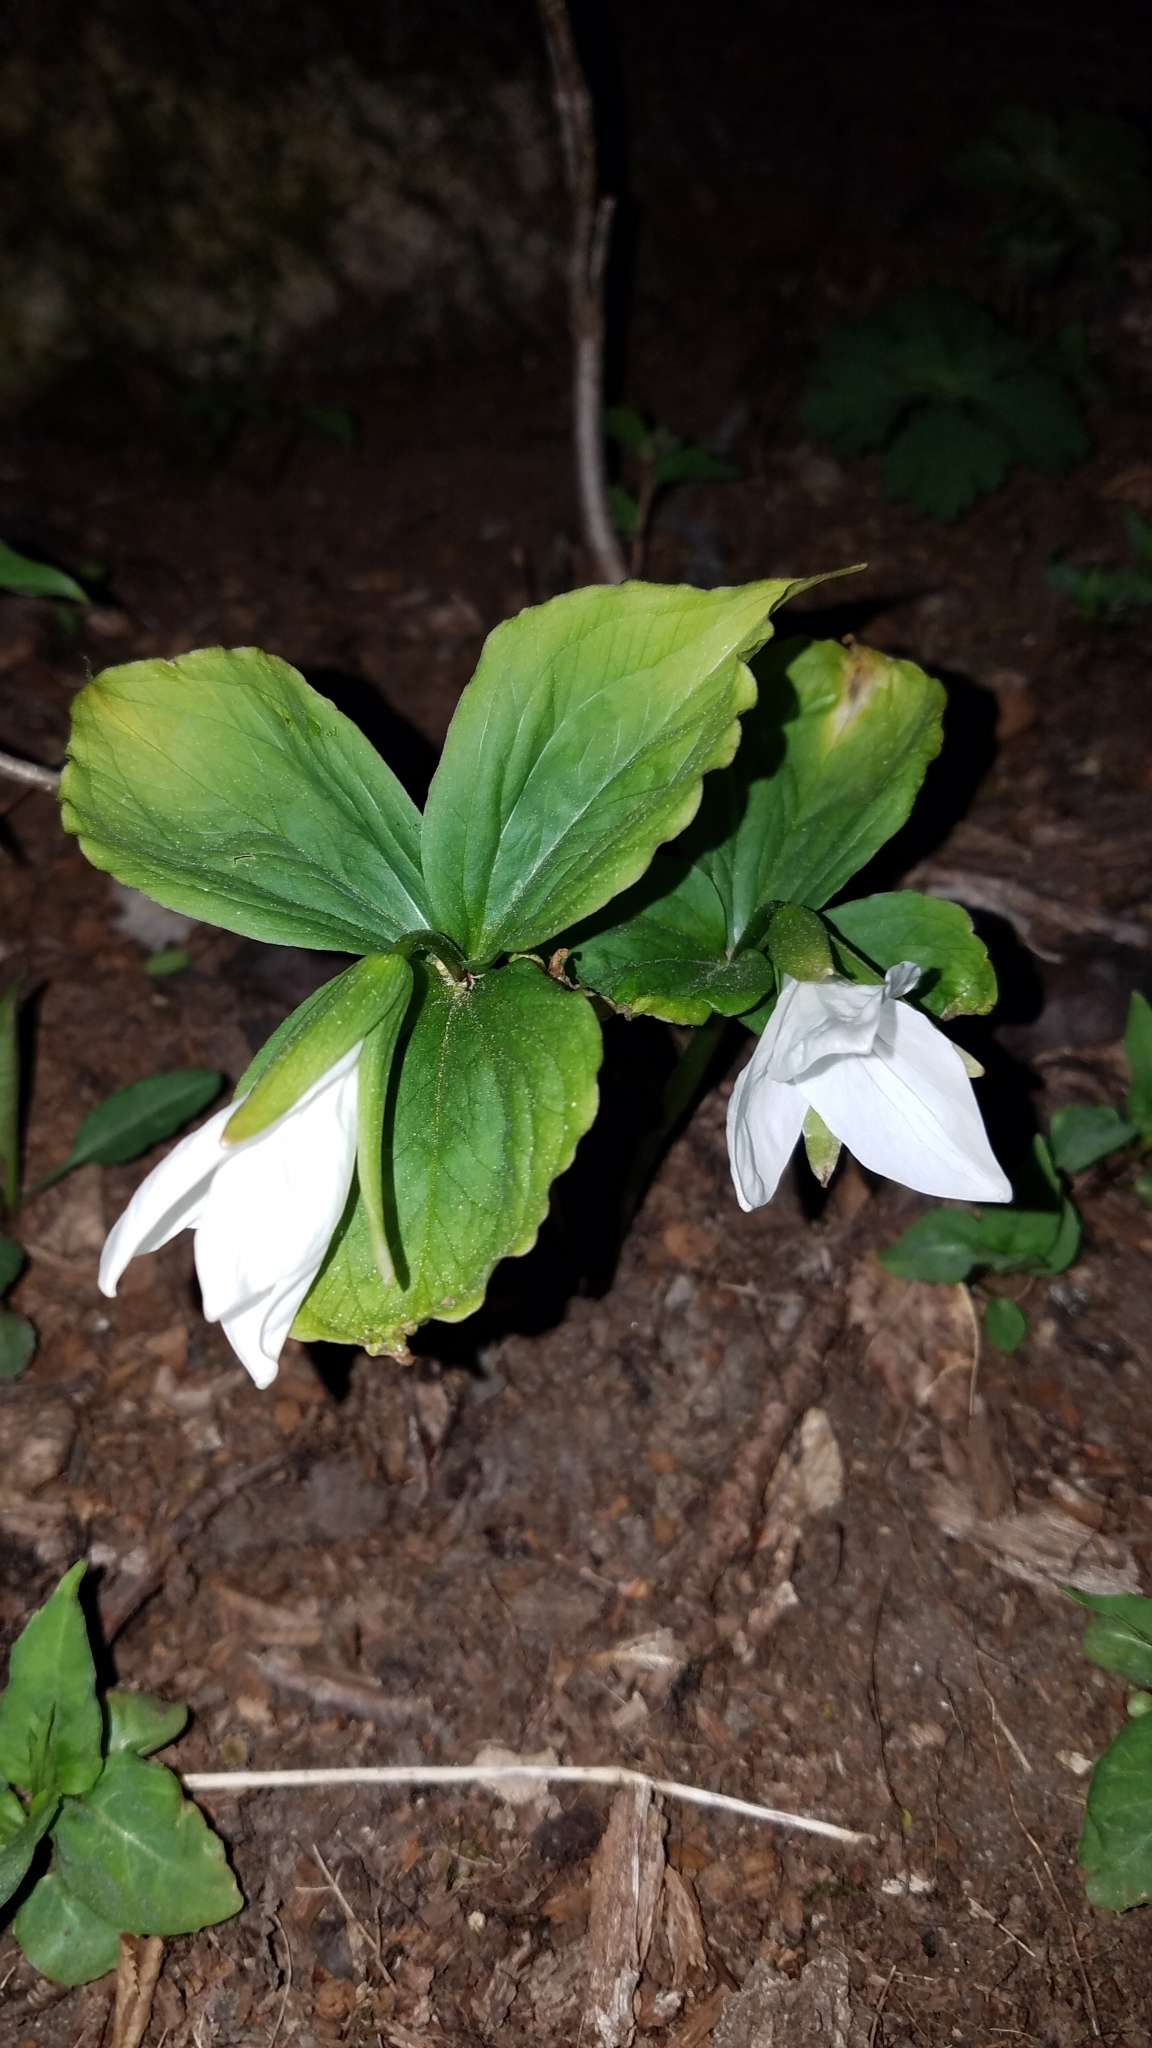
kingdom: Plantae
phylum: Tracheophyta
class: Liliopsida
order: Liliales
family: Melanthiaceae
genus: Trillium
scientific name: Trillium grandiflorum
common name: Great white trillium
